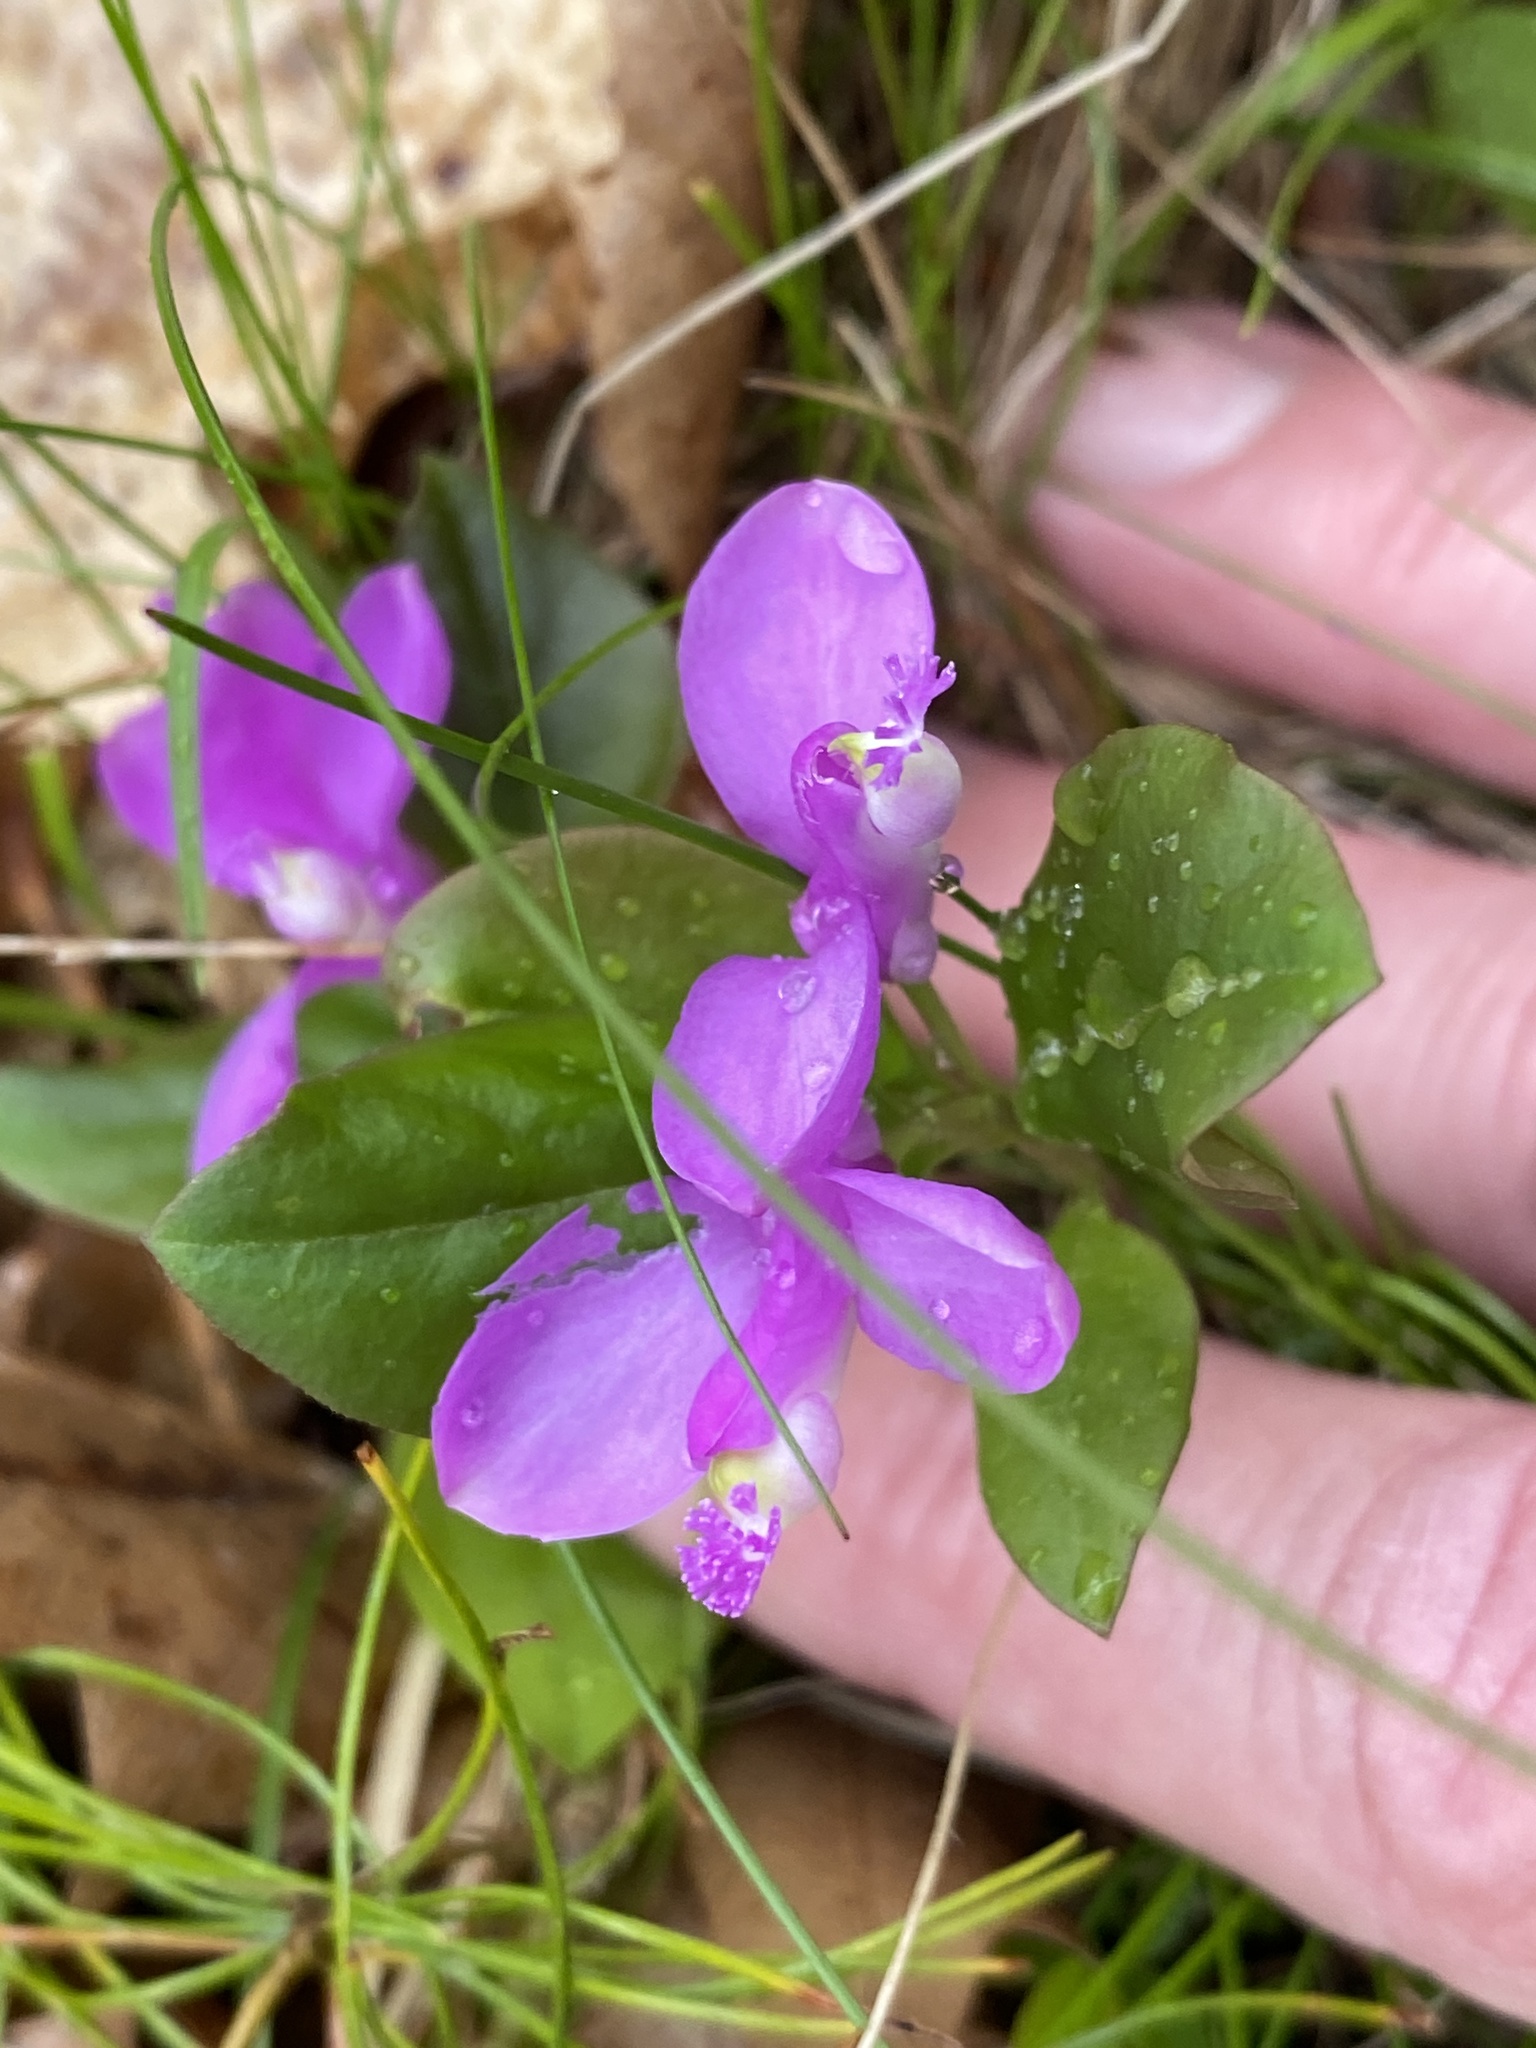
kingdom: Plantae
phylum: Tracheophyta
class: Magnoliopsida
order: Fabales
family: Polygalaceae
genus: Polygaloides
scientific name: Polygaloides paucifolia
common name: Bird-on-the-wing
